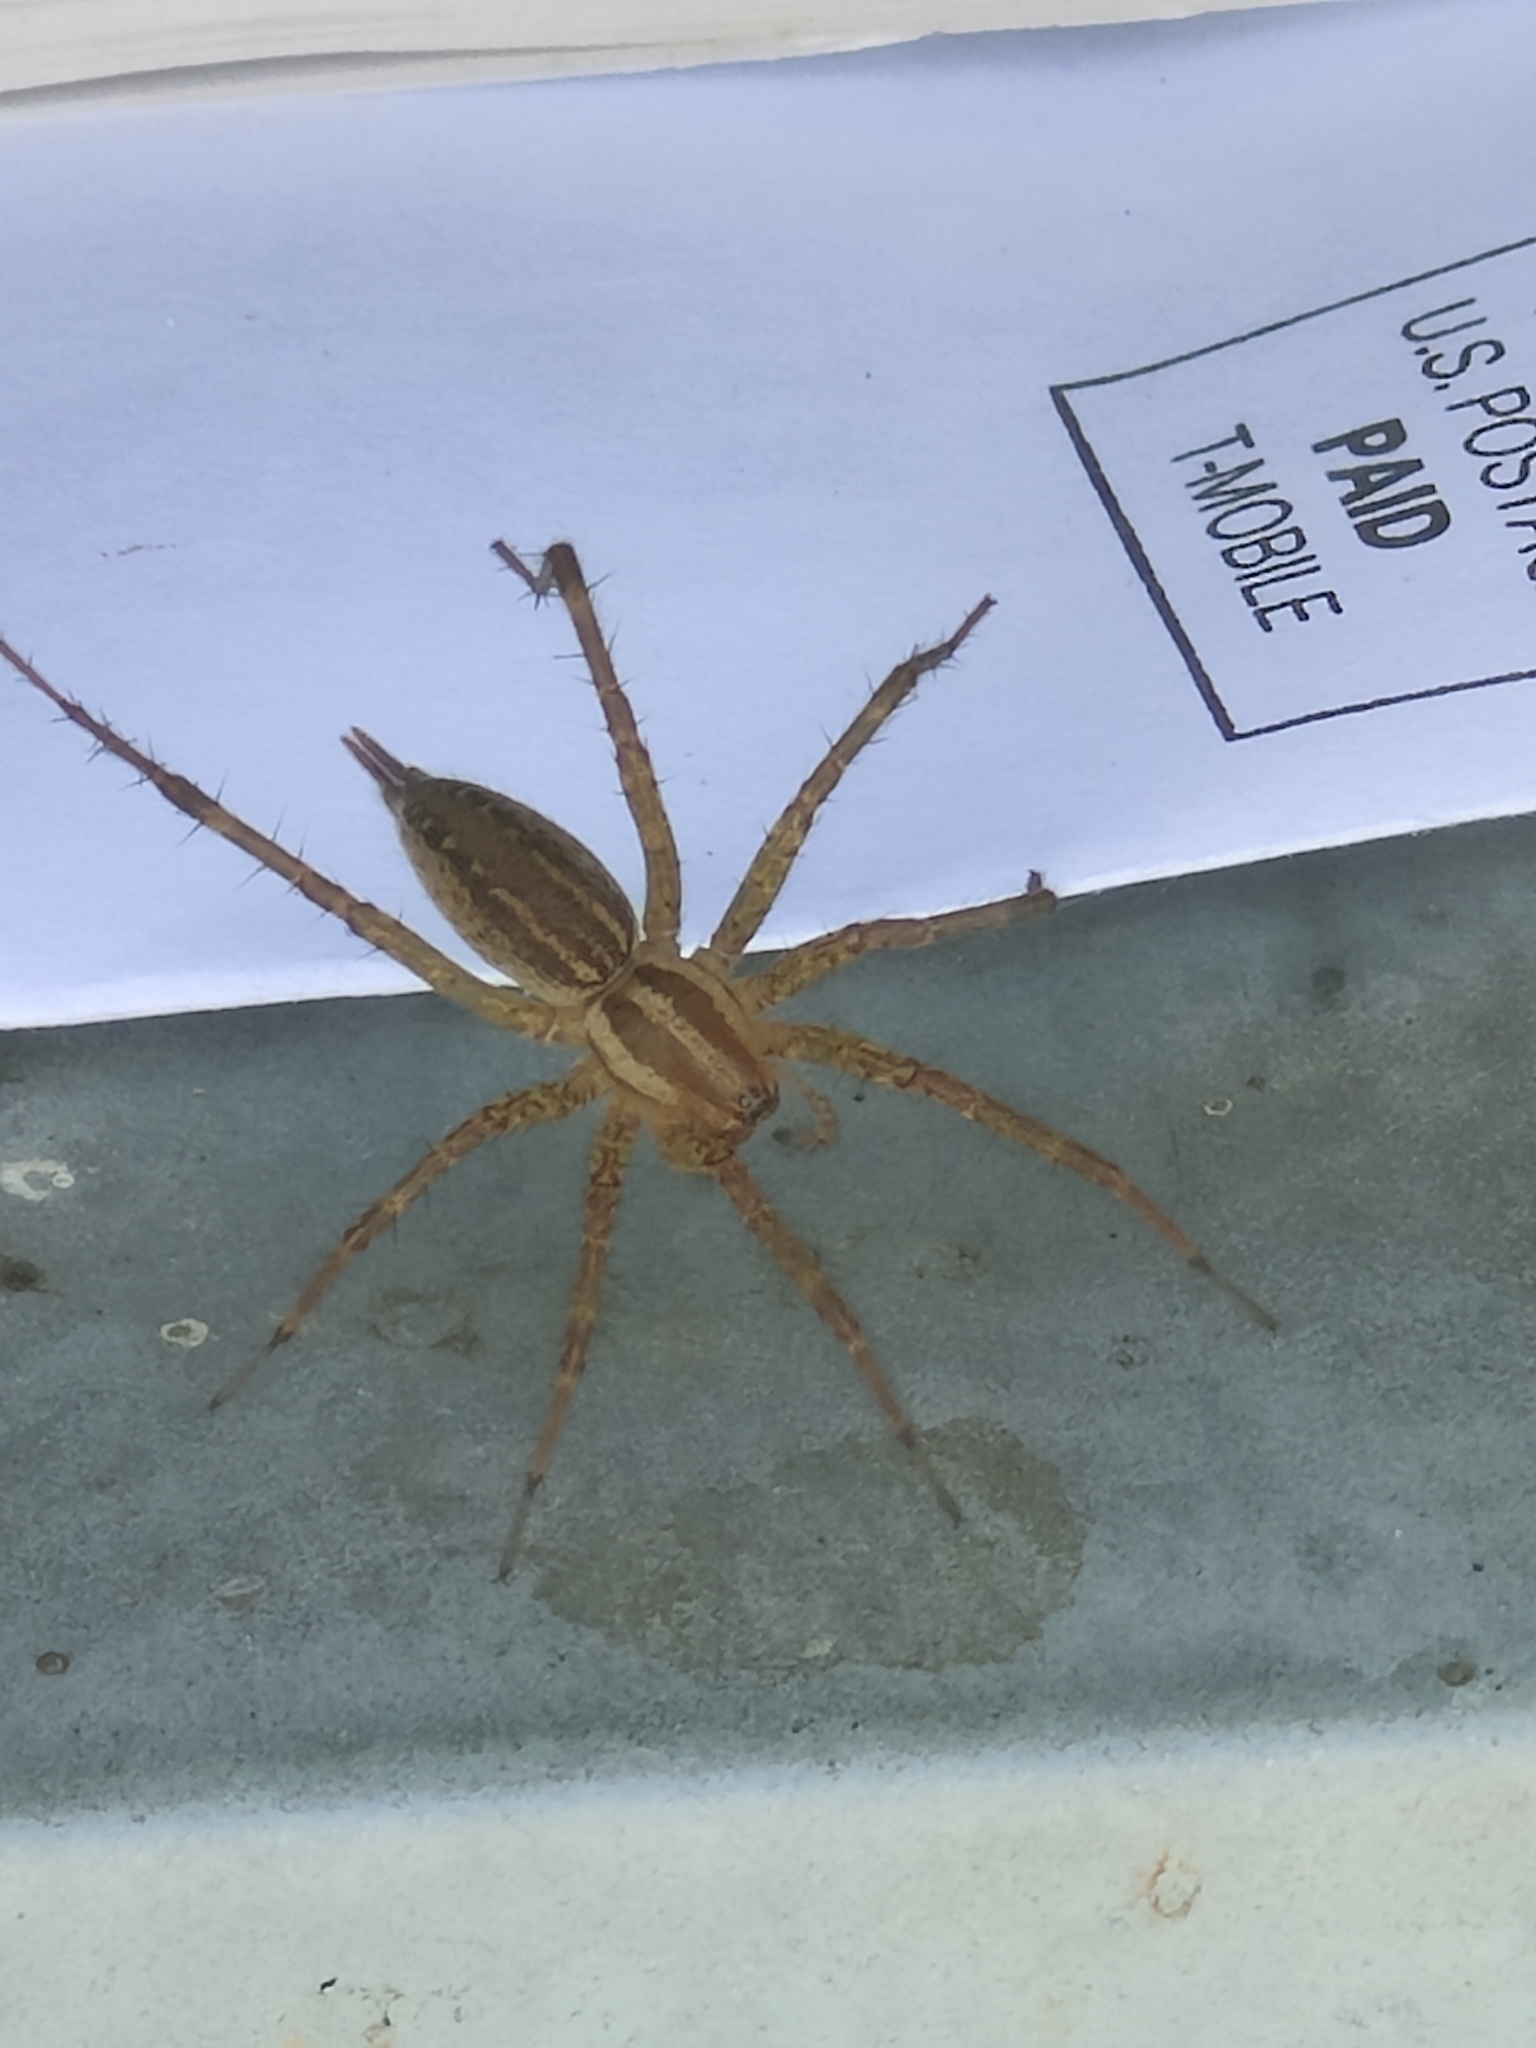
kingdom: Animalia
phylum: Arthropoda
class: Arachnida
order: Araneae
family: Agelenidae
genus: Agelenopsis
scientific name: Agelenopsis
